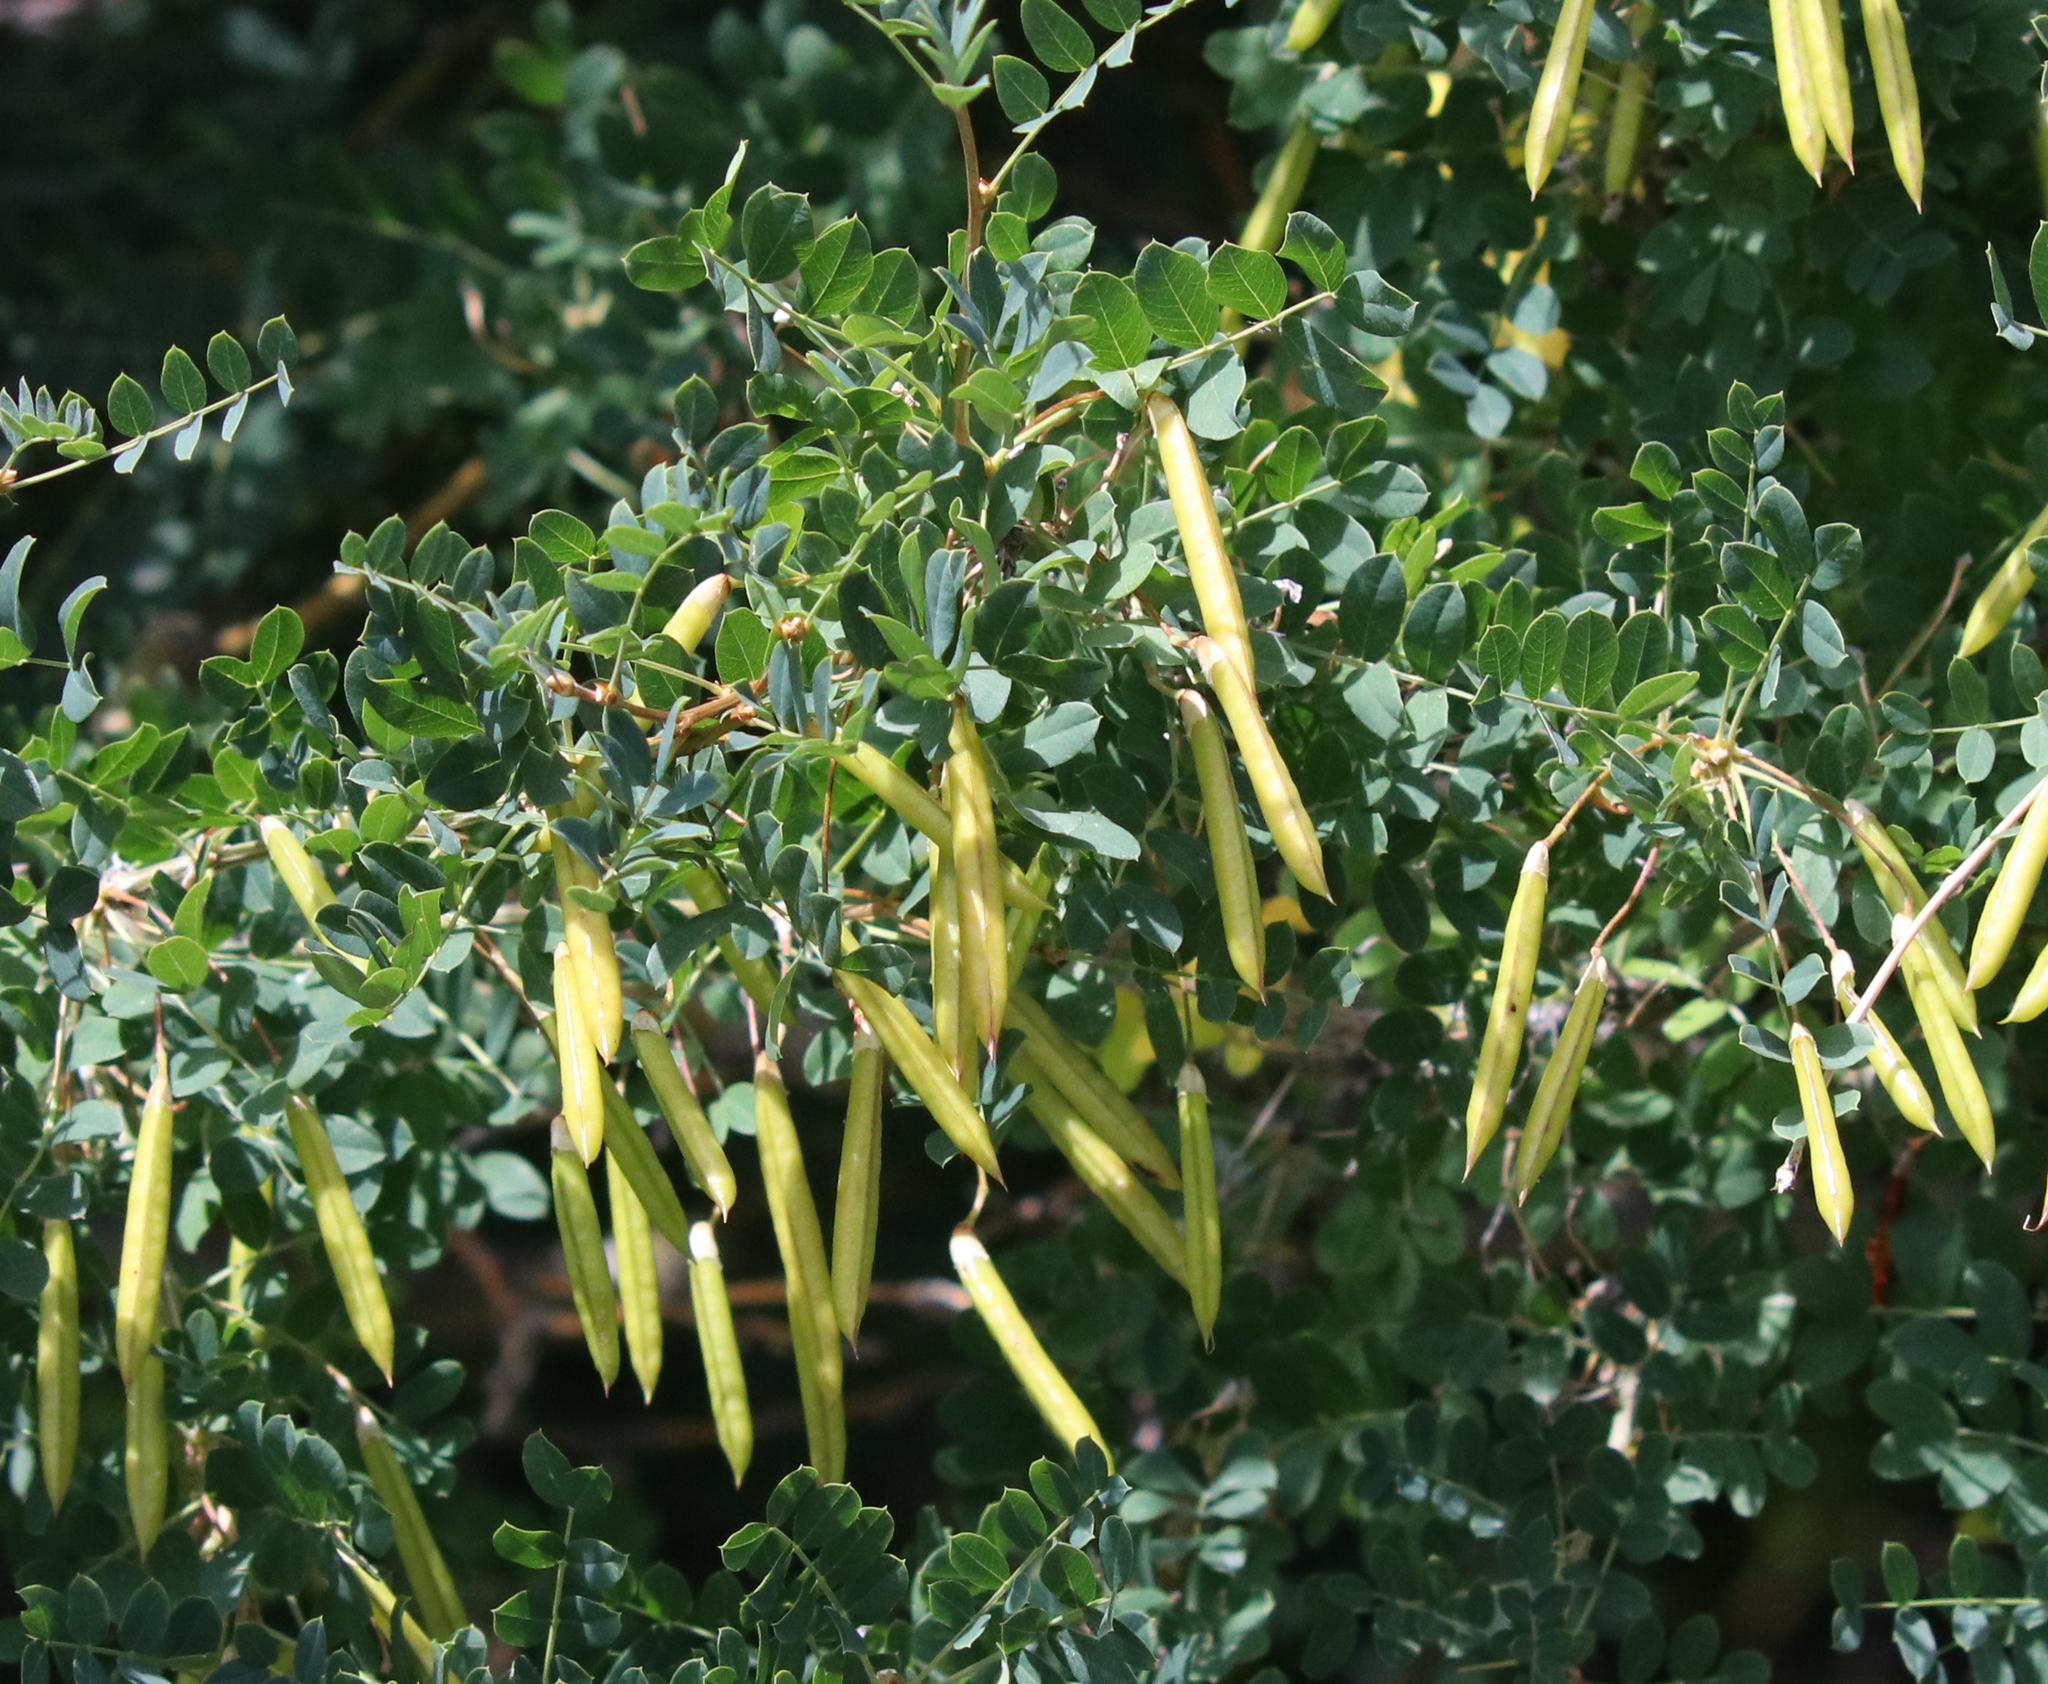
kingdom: Plantae
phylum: Tracheophyta
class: Magnoliopsida
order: Fabales
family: Fabaceae
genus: Caragana
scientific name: Caragana arborescens
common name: Siberian peashrub
